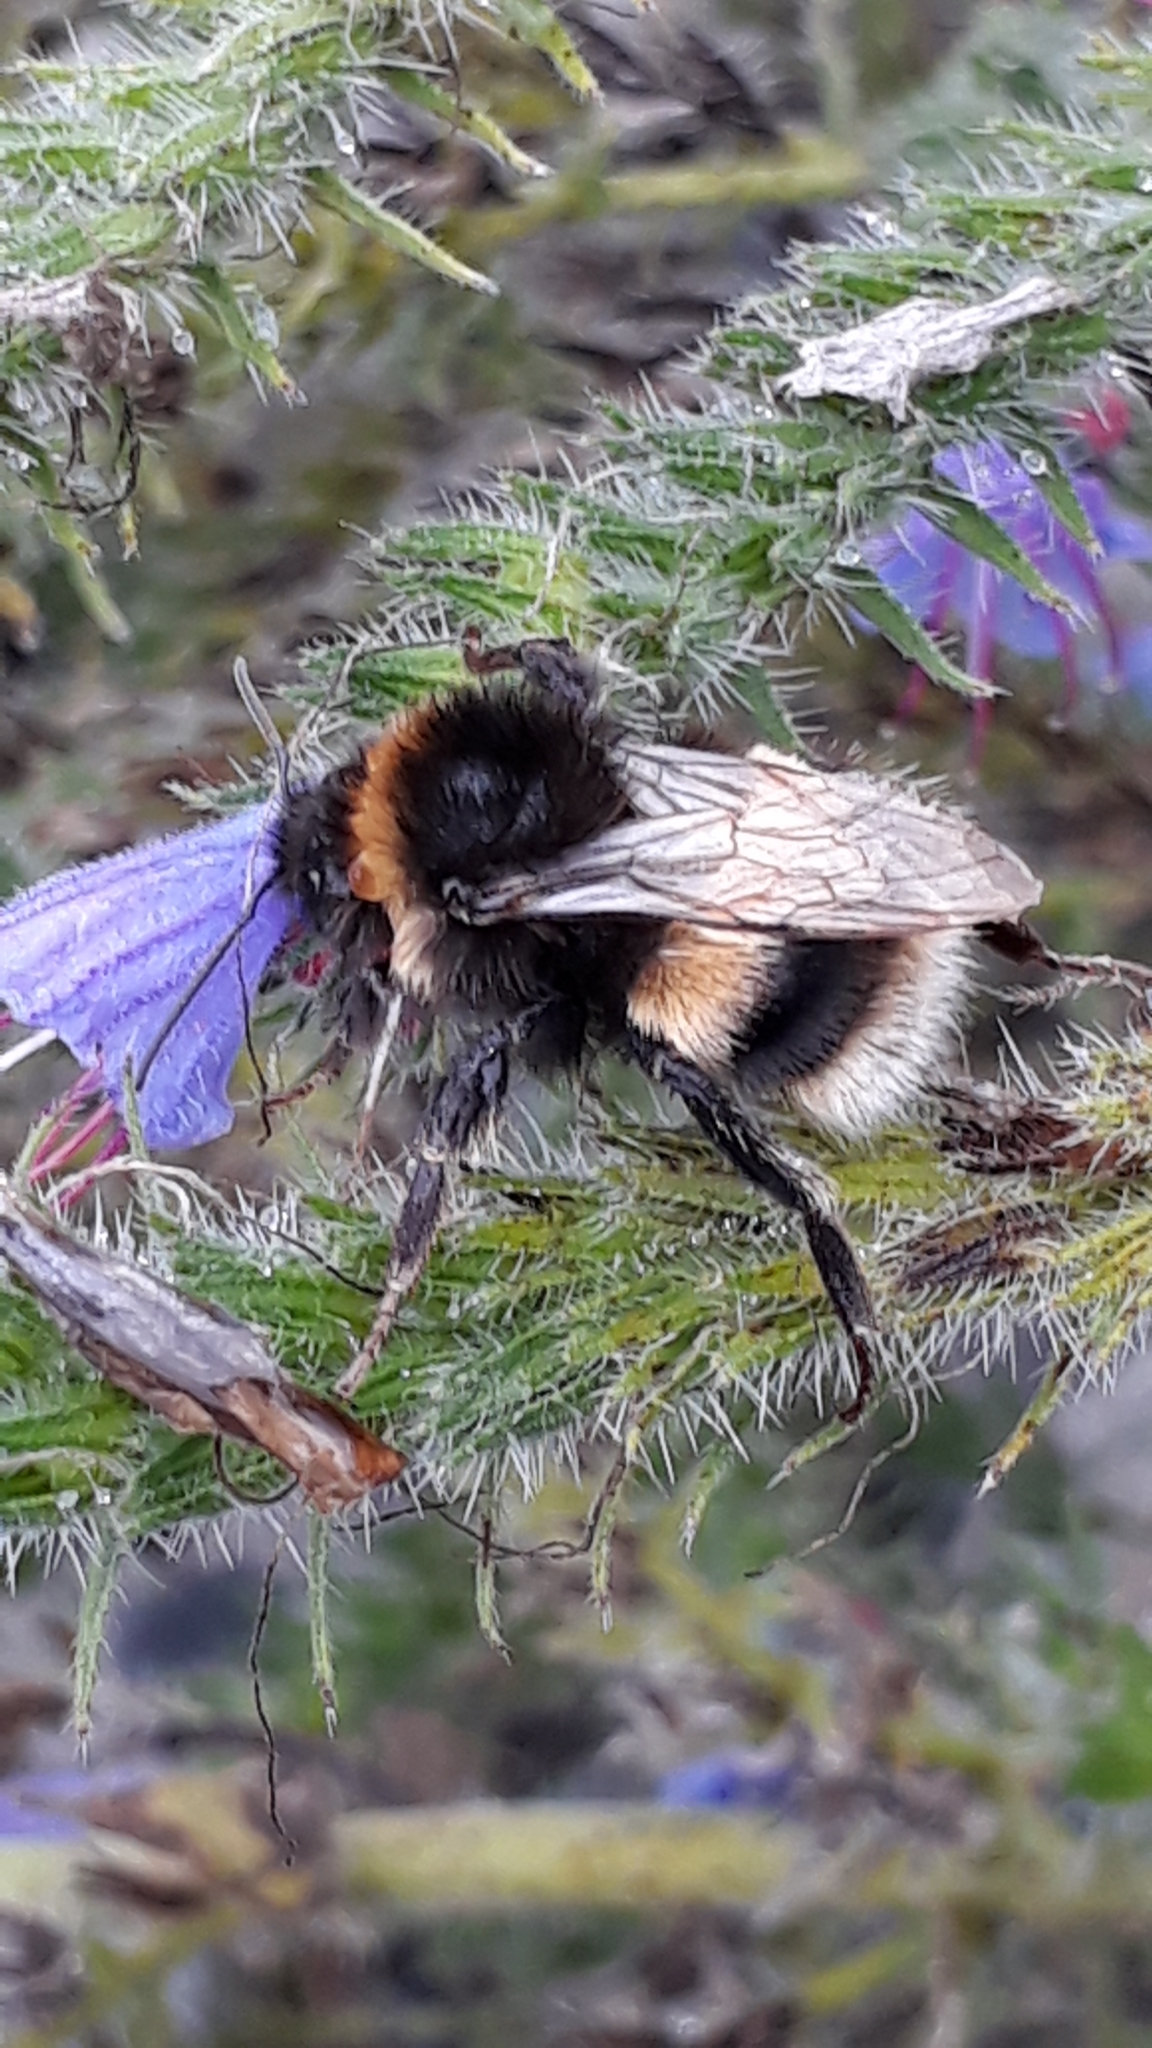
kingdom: Animalia
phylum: Arthropoda
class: Insecta
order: Hymenoptera
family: Apidae
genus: Bombus
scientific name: Bombus terrestris
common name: Buff-tailed bumblebee
